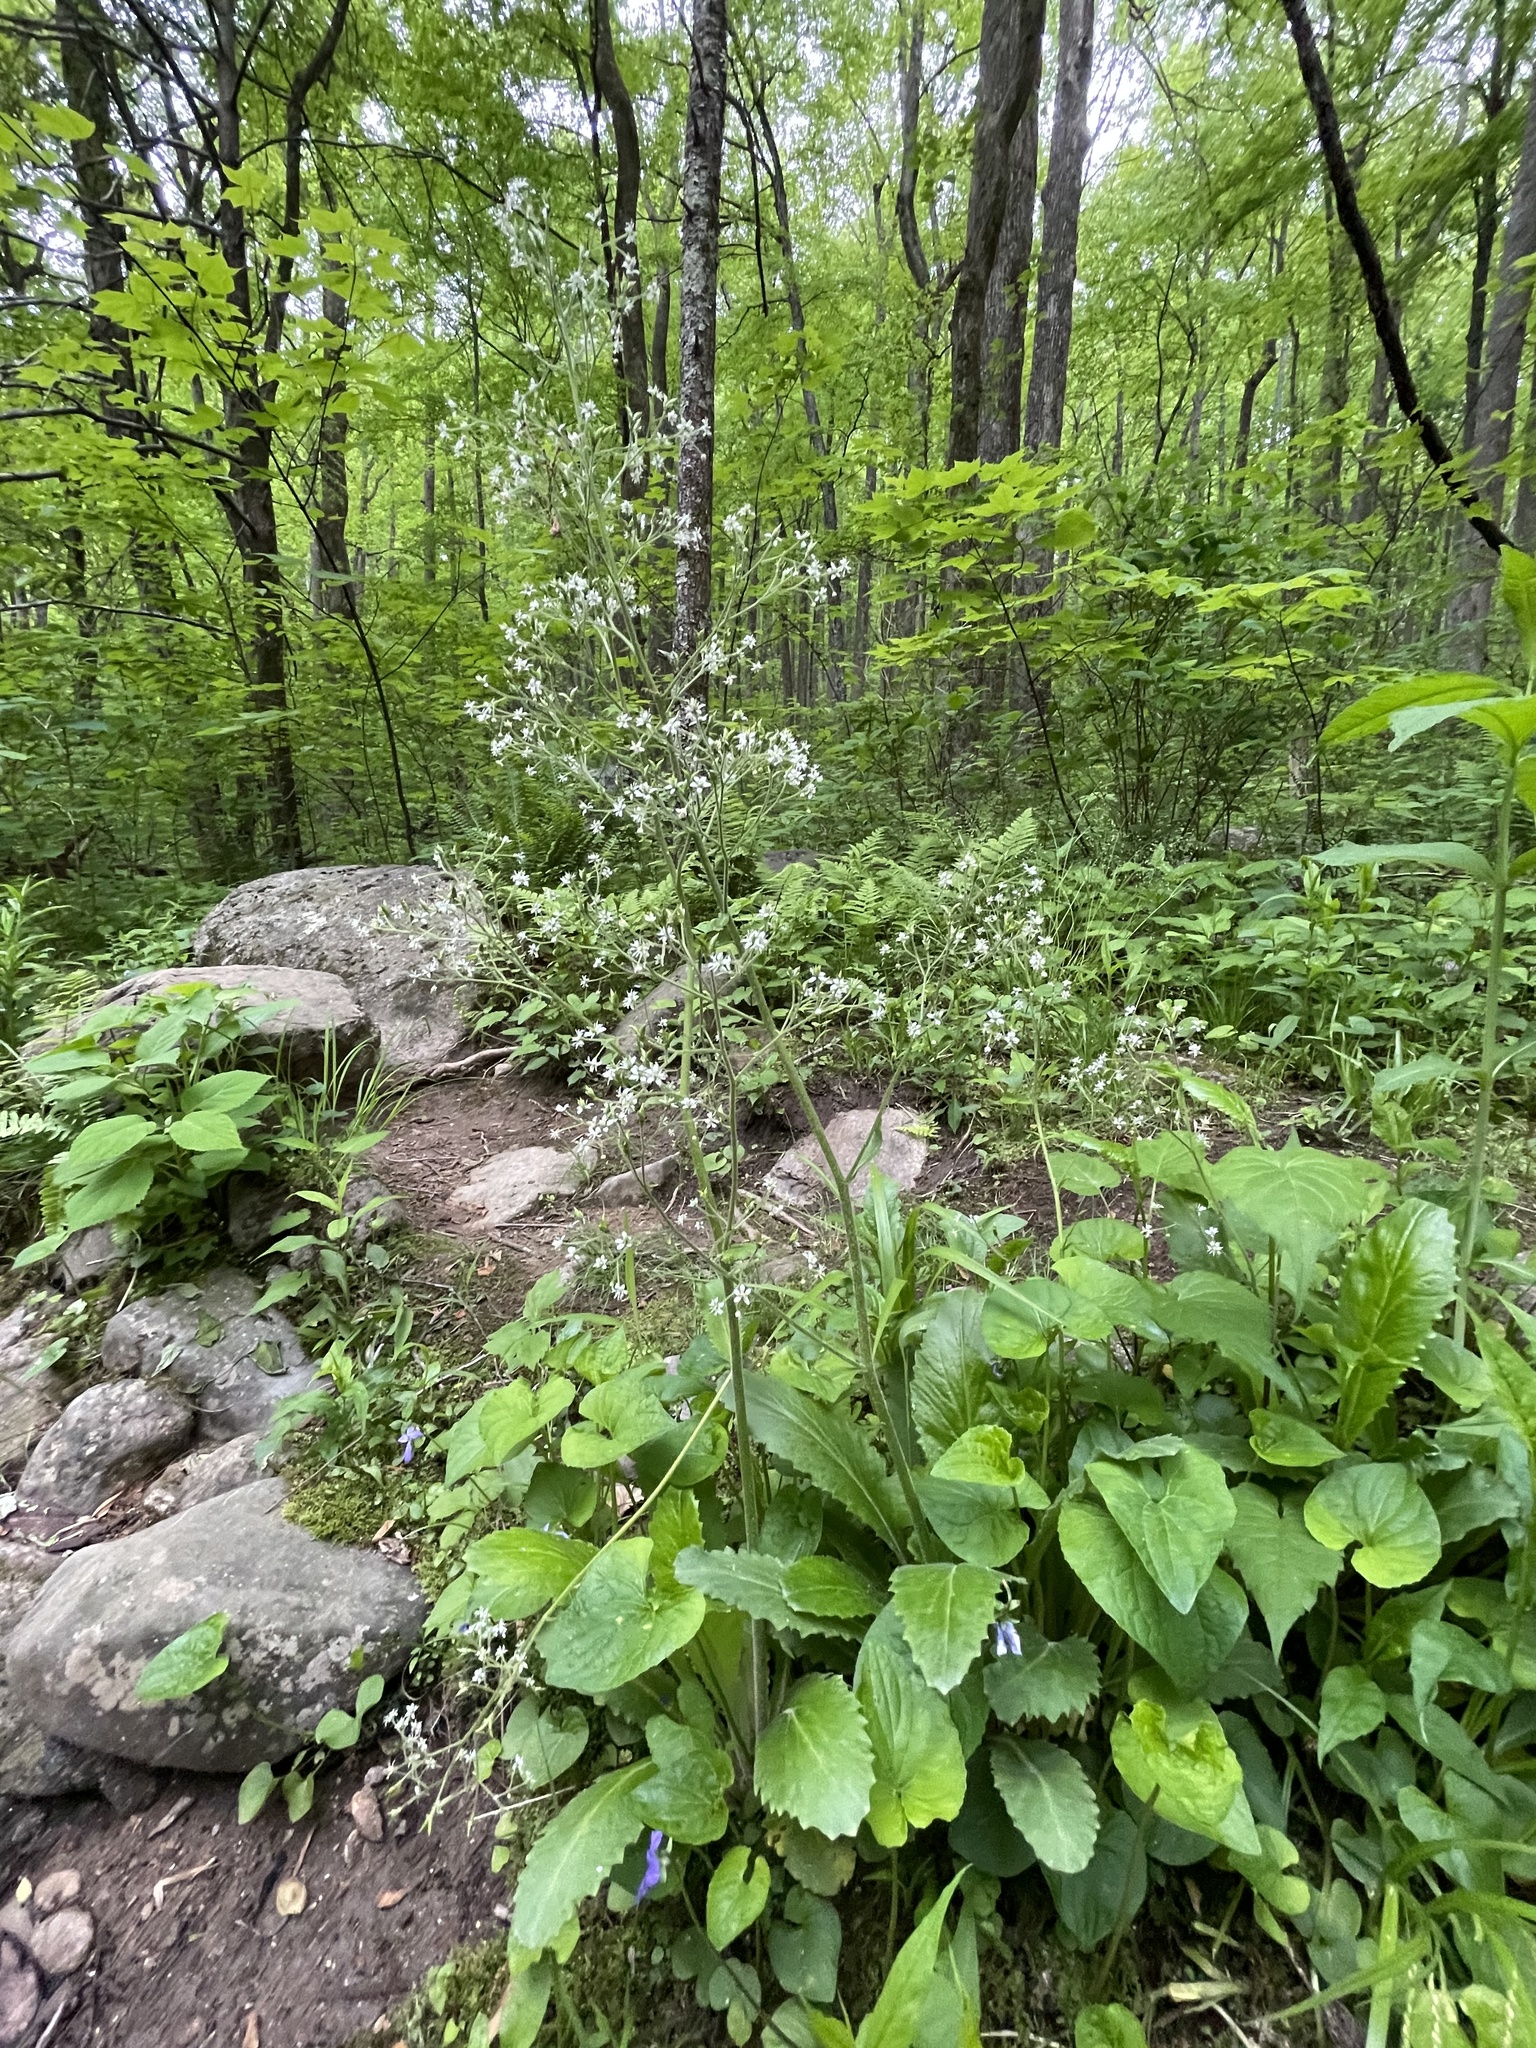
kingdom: Plantae
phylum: Tracheophyta
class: Magnoliopsida
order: Saxifragales
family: Saxifragaceae
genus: Micranthes
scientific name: Micranthes micranthidifolia
